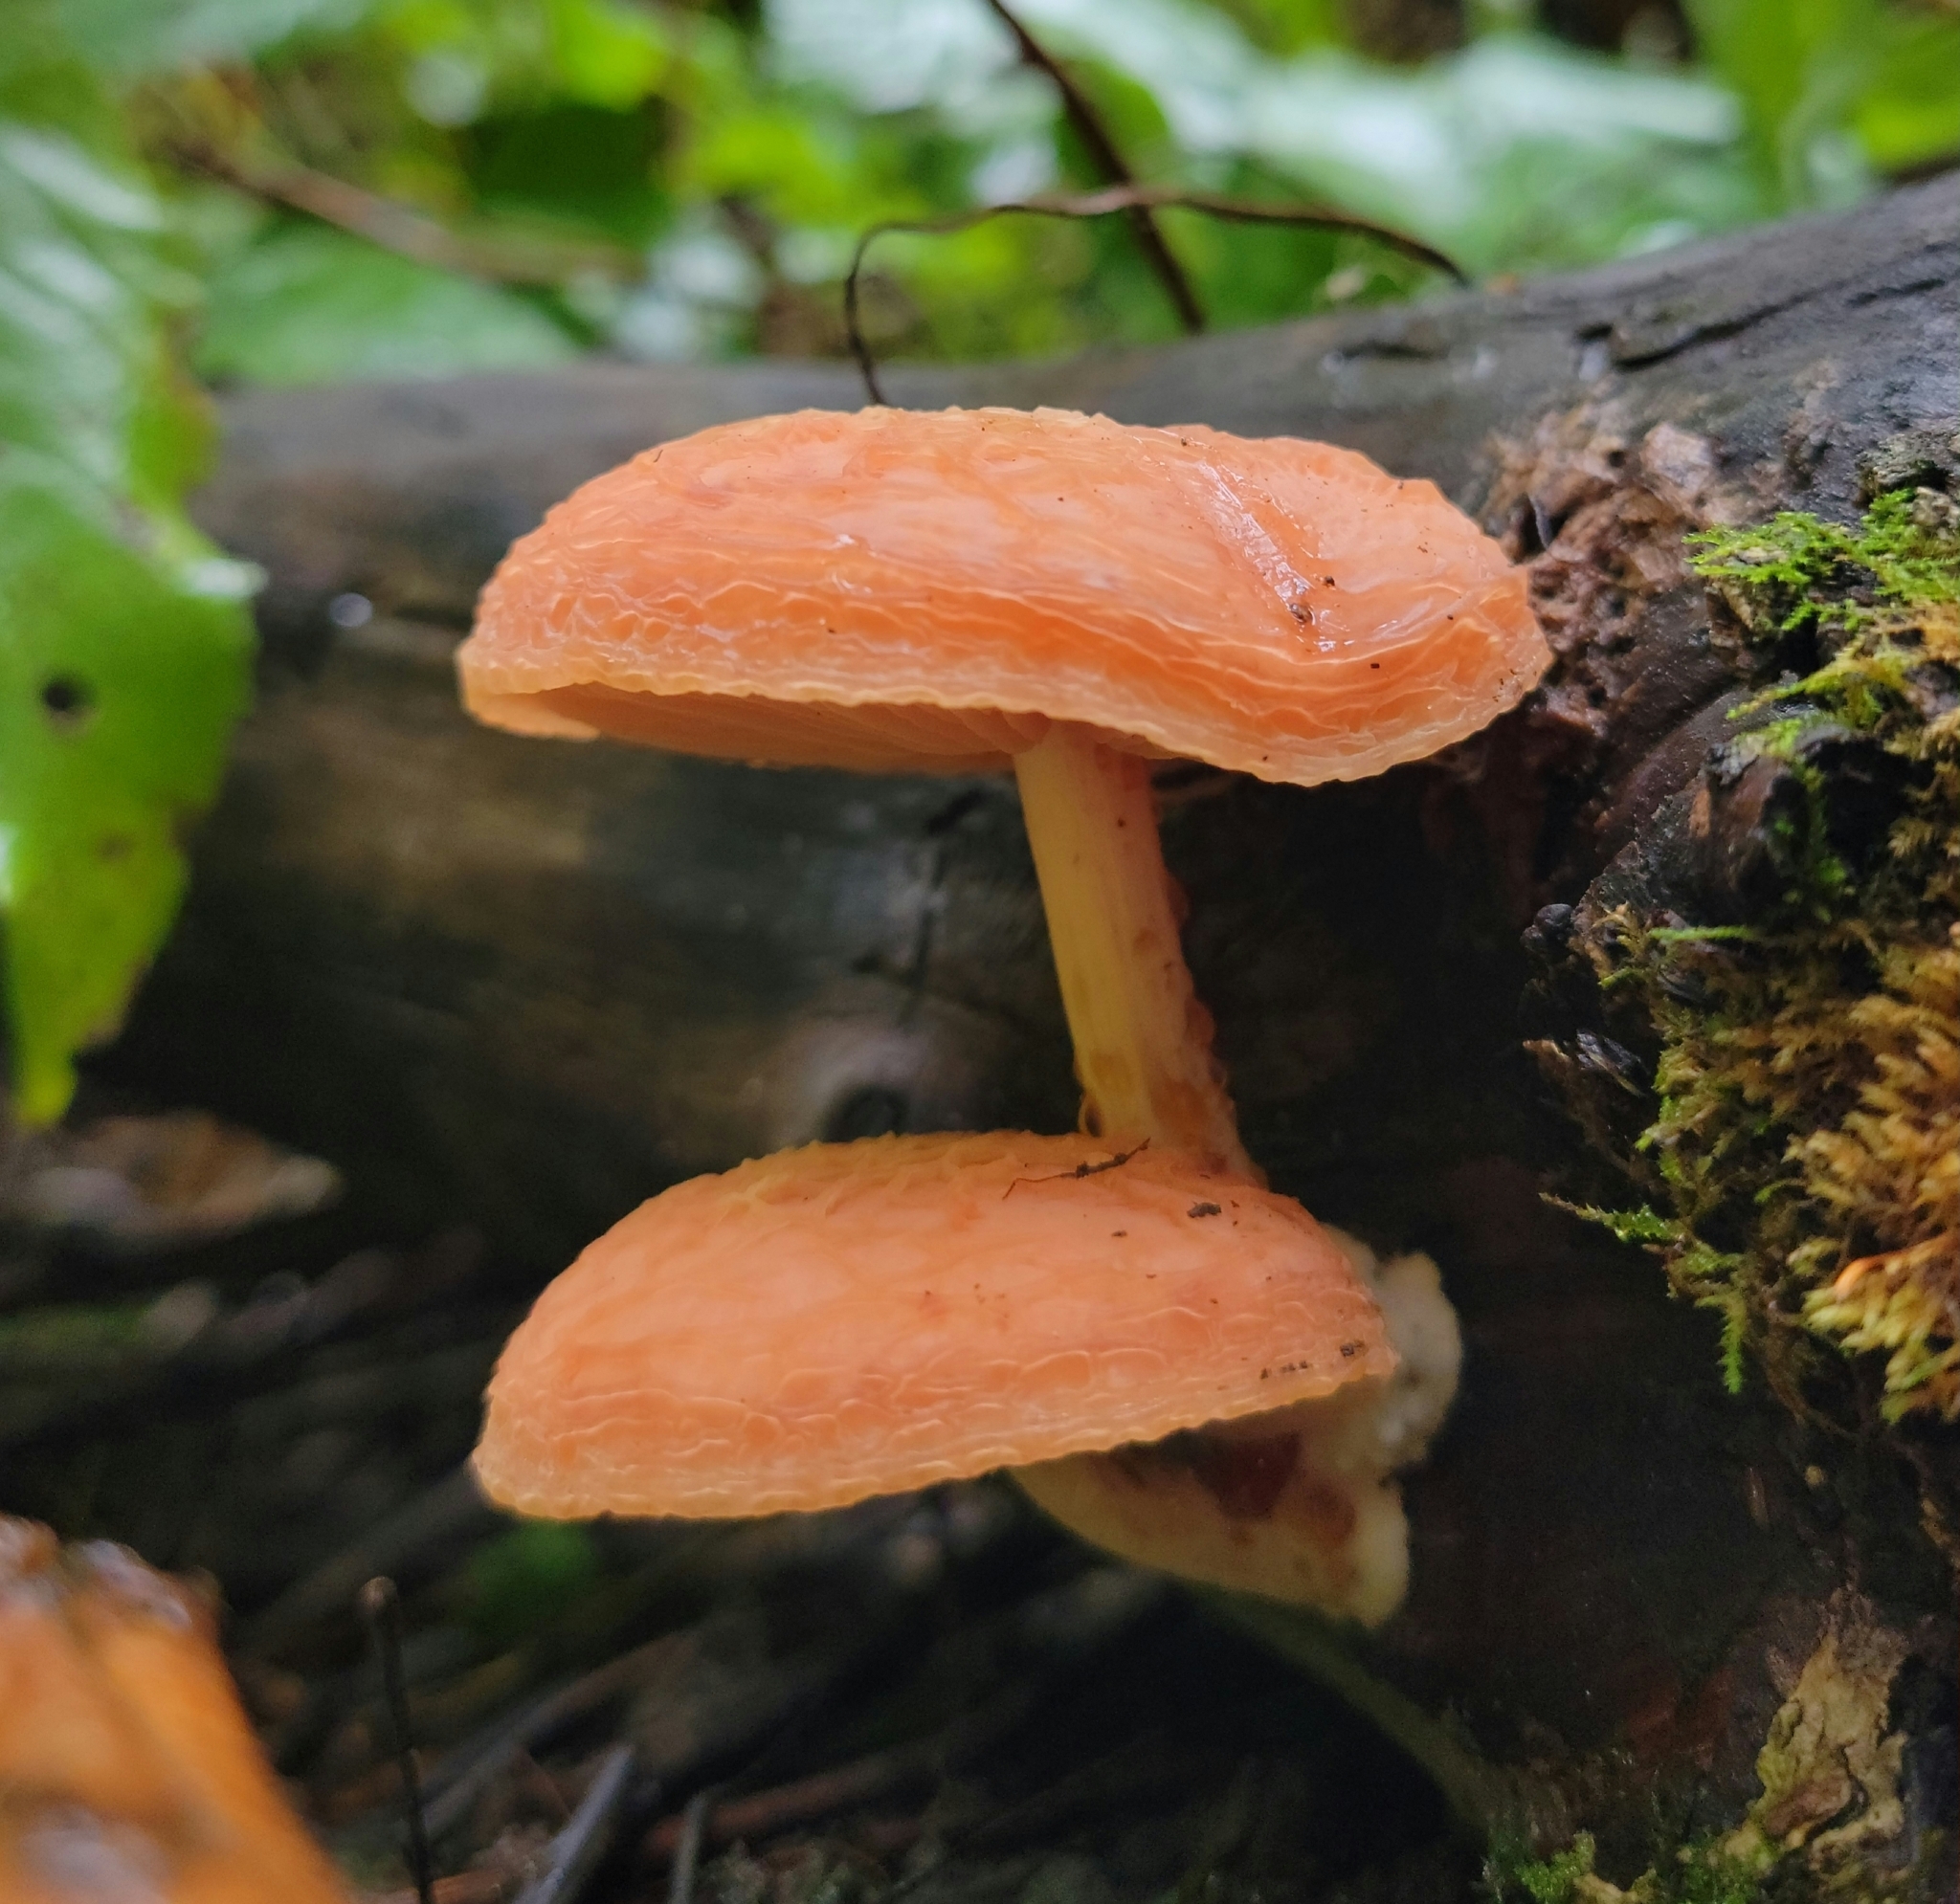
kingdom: Fungi
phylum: Basidiomycota
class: Agaricomycetes
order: Agaricales
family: Physalacriaceae
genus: Rhodotus
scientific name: Rhodotus palmatus
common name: Wrinkled peach
